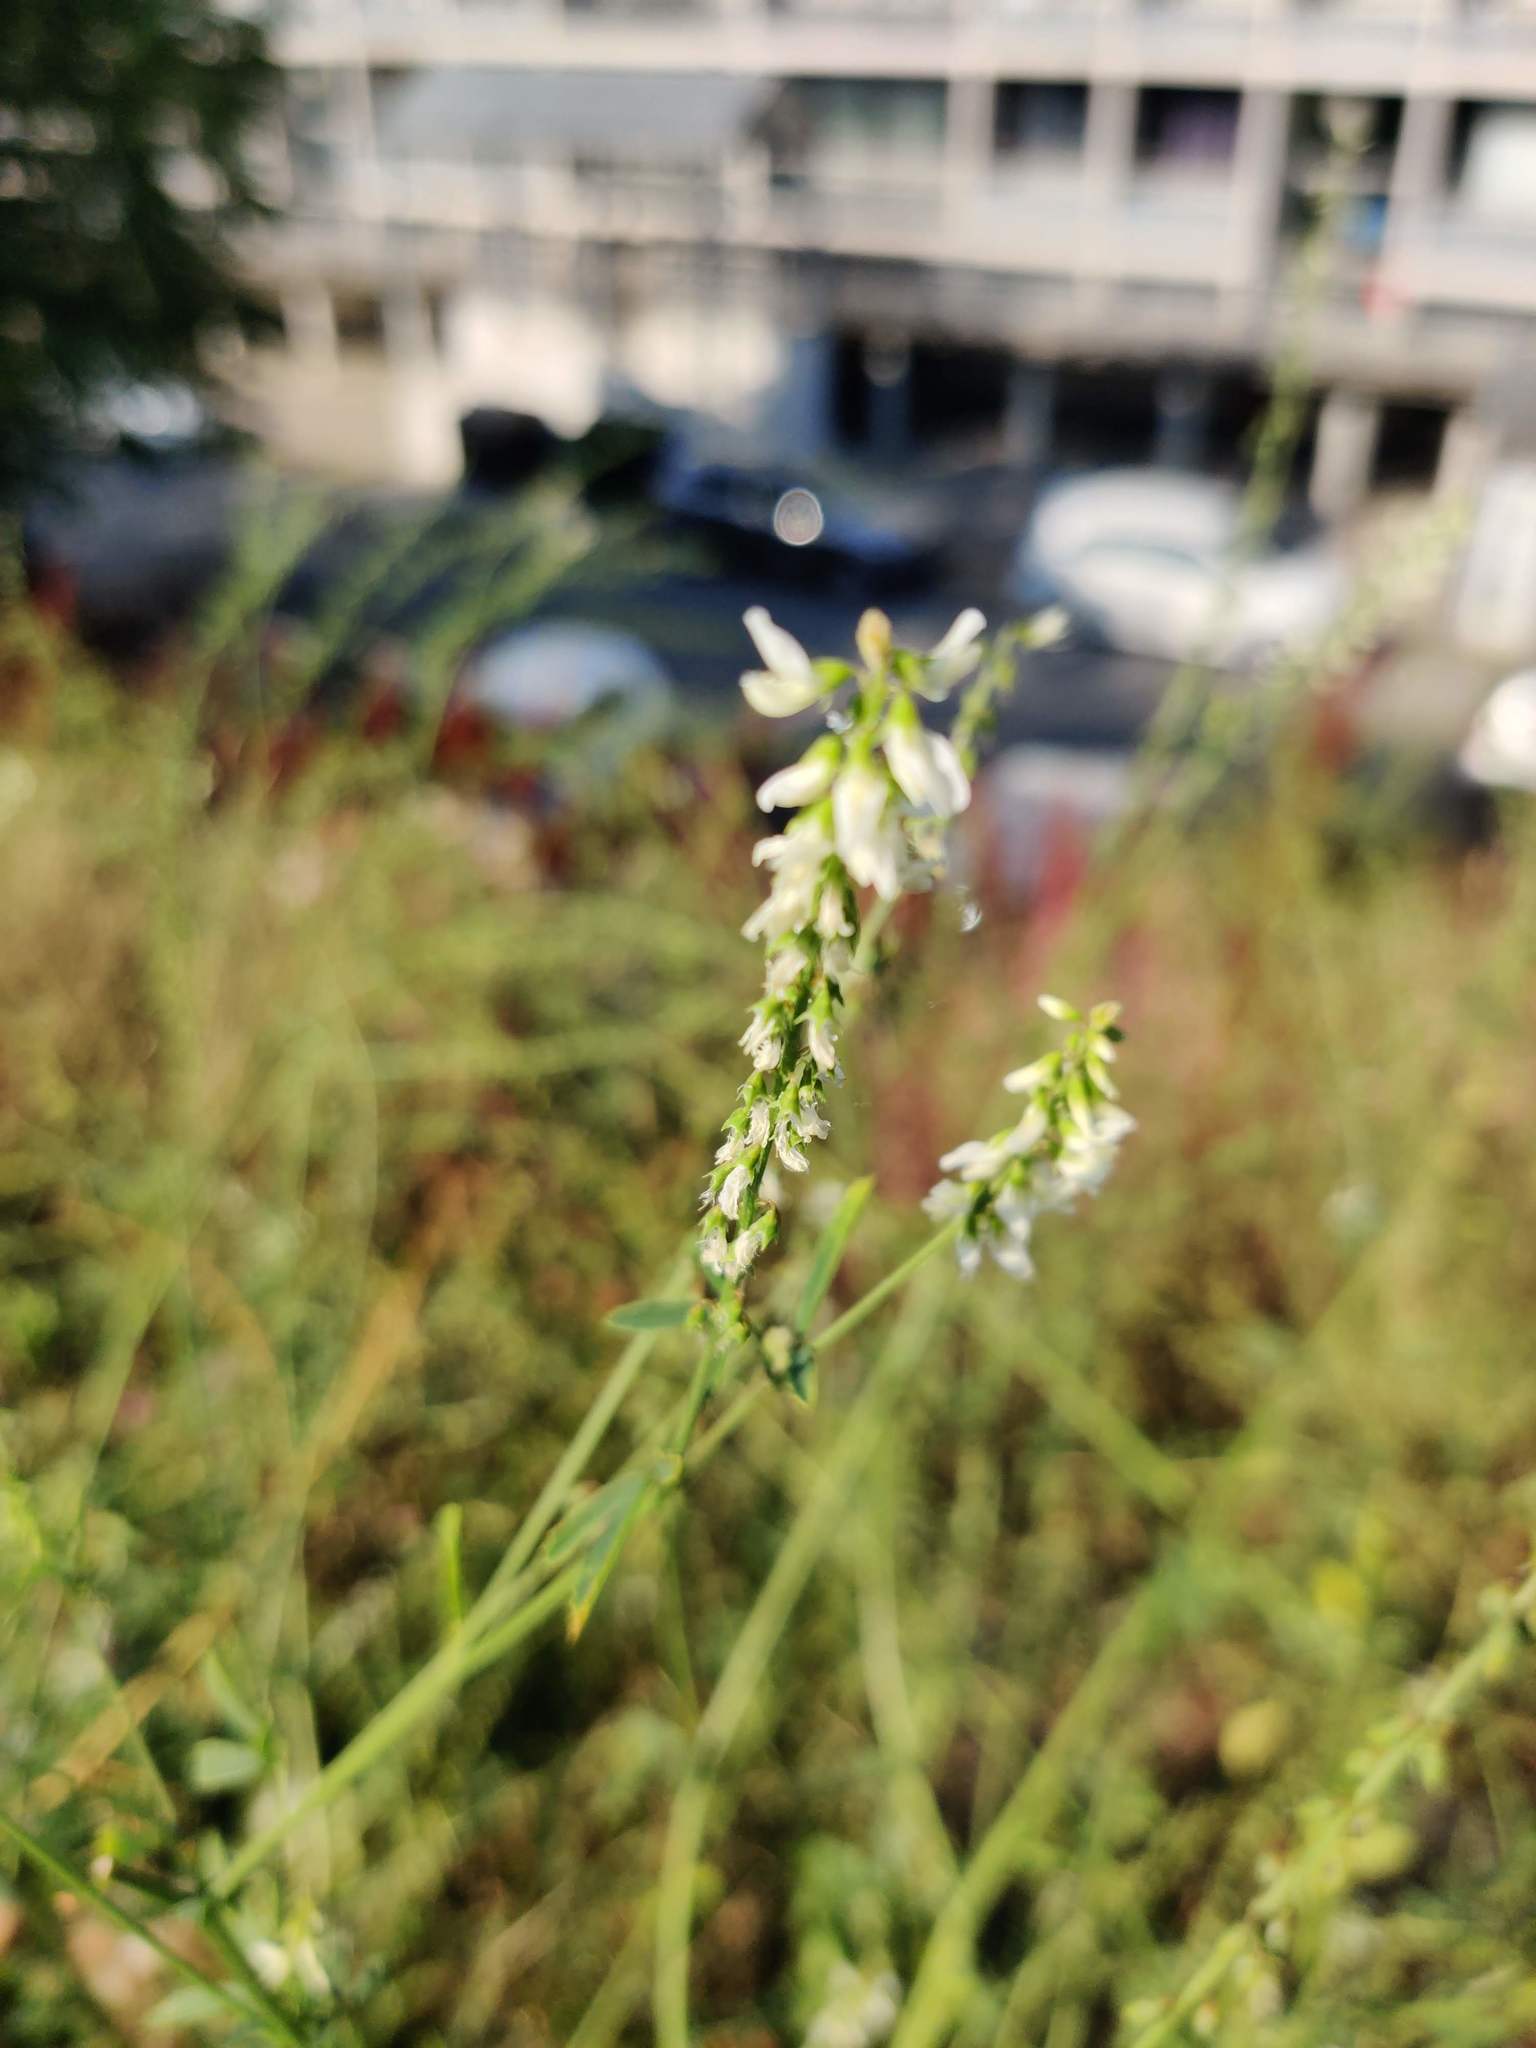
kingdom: Plantae
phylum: Tracheophyta
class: Magnoliopsida
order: Fabales
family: Fabaceae
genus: Melilotus
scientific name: Melilotus albus
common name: White melilot
